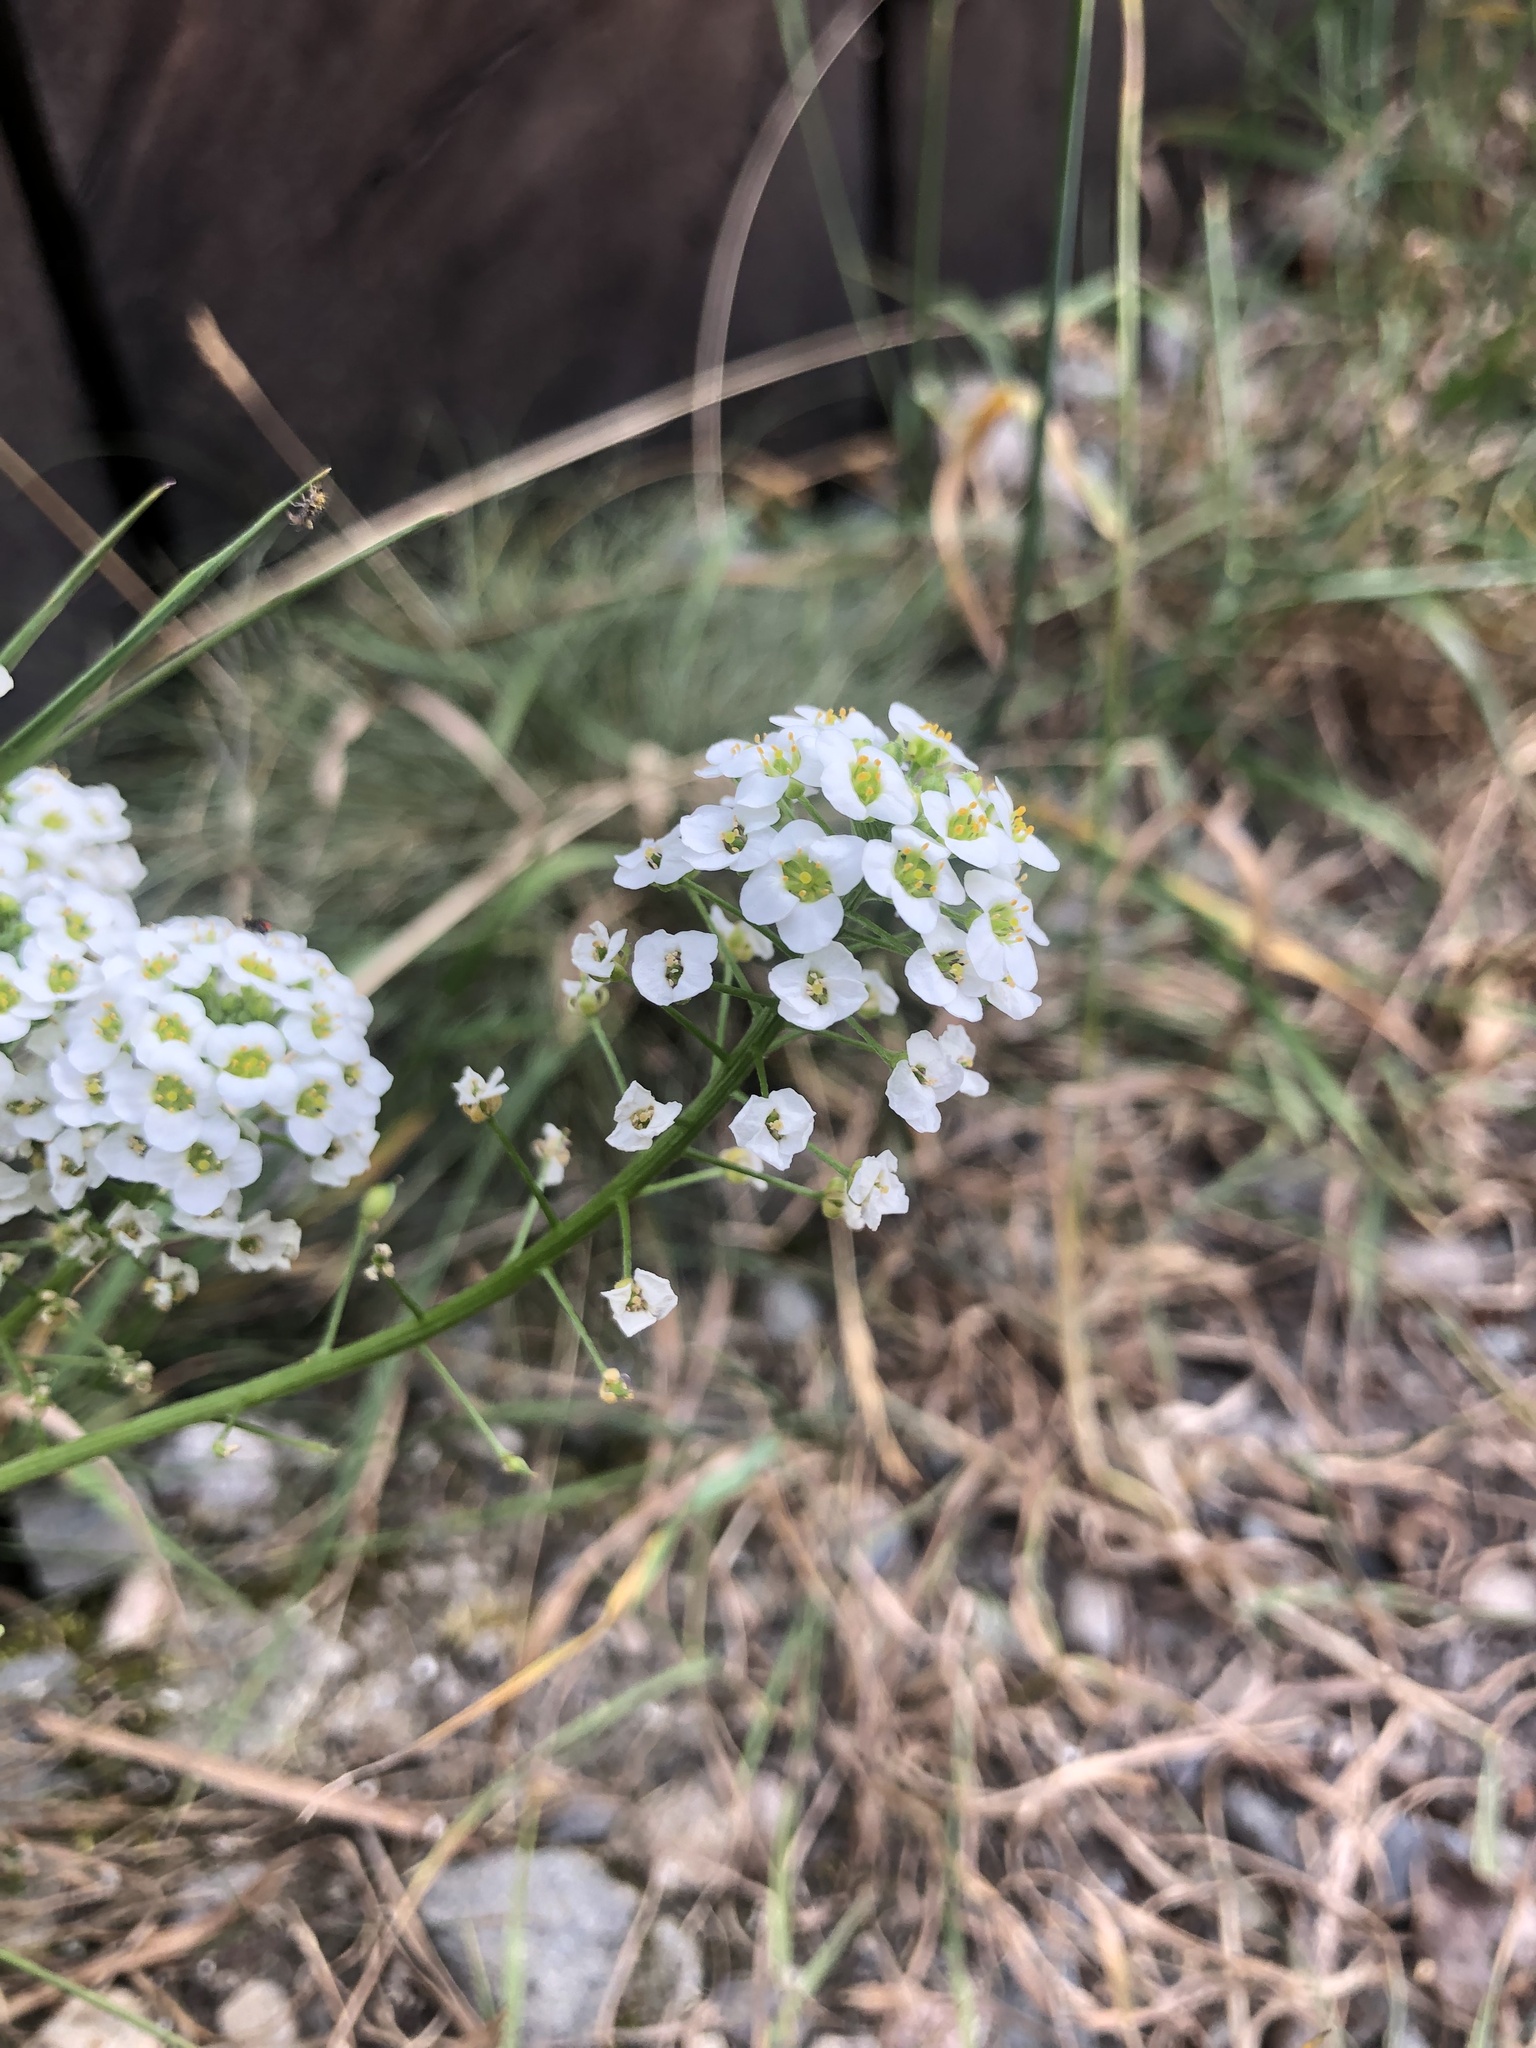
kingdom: Plantae
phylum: Tracheophyta
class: Magnoliopsida
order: Brassicales
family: Brassicaceae
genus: Lobularia
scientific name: Lobularia maritima
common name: Sweet alison
